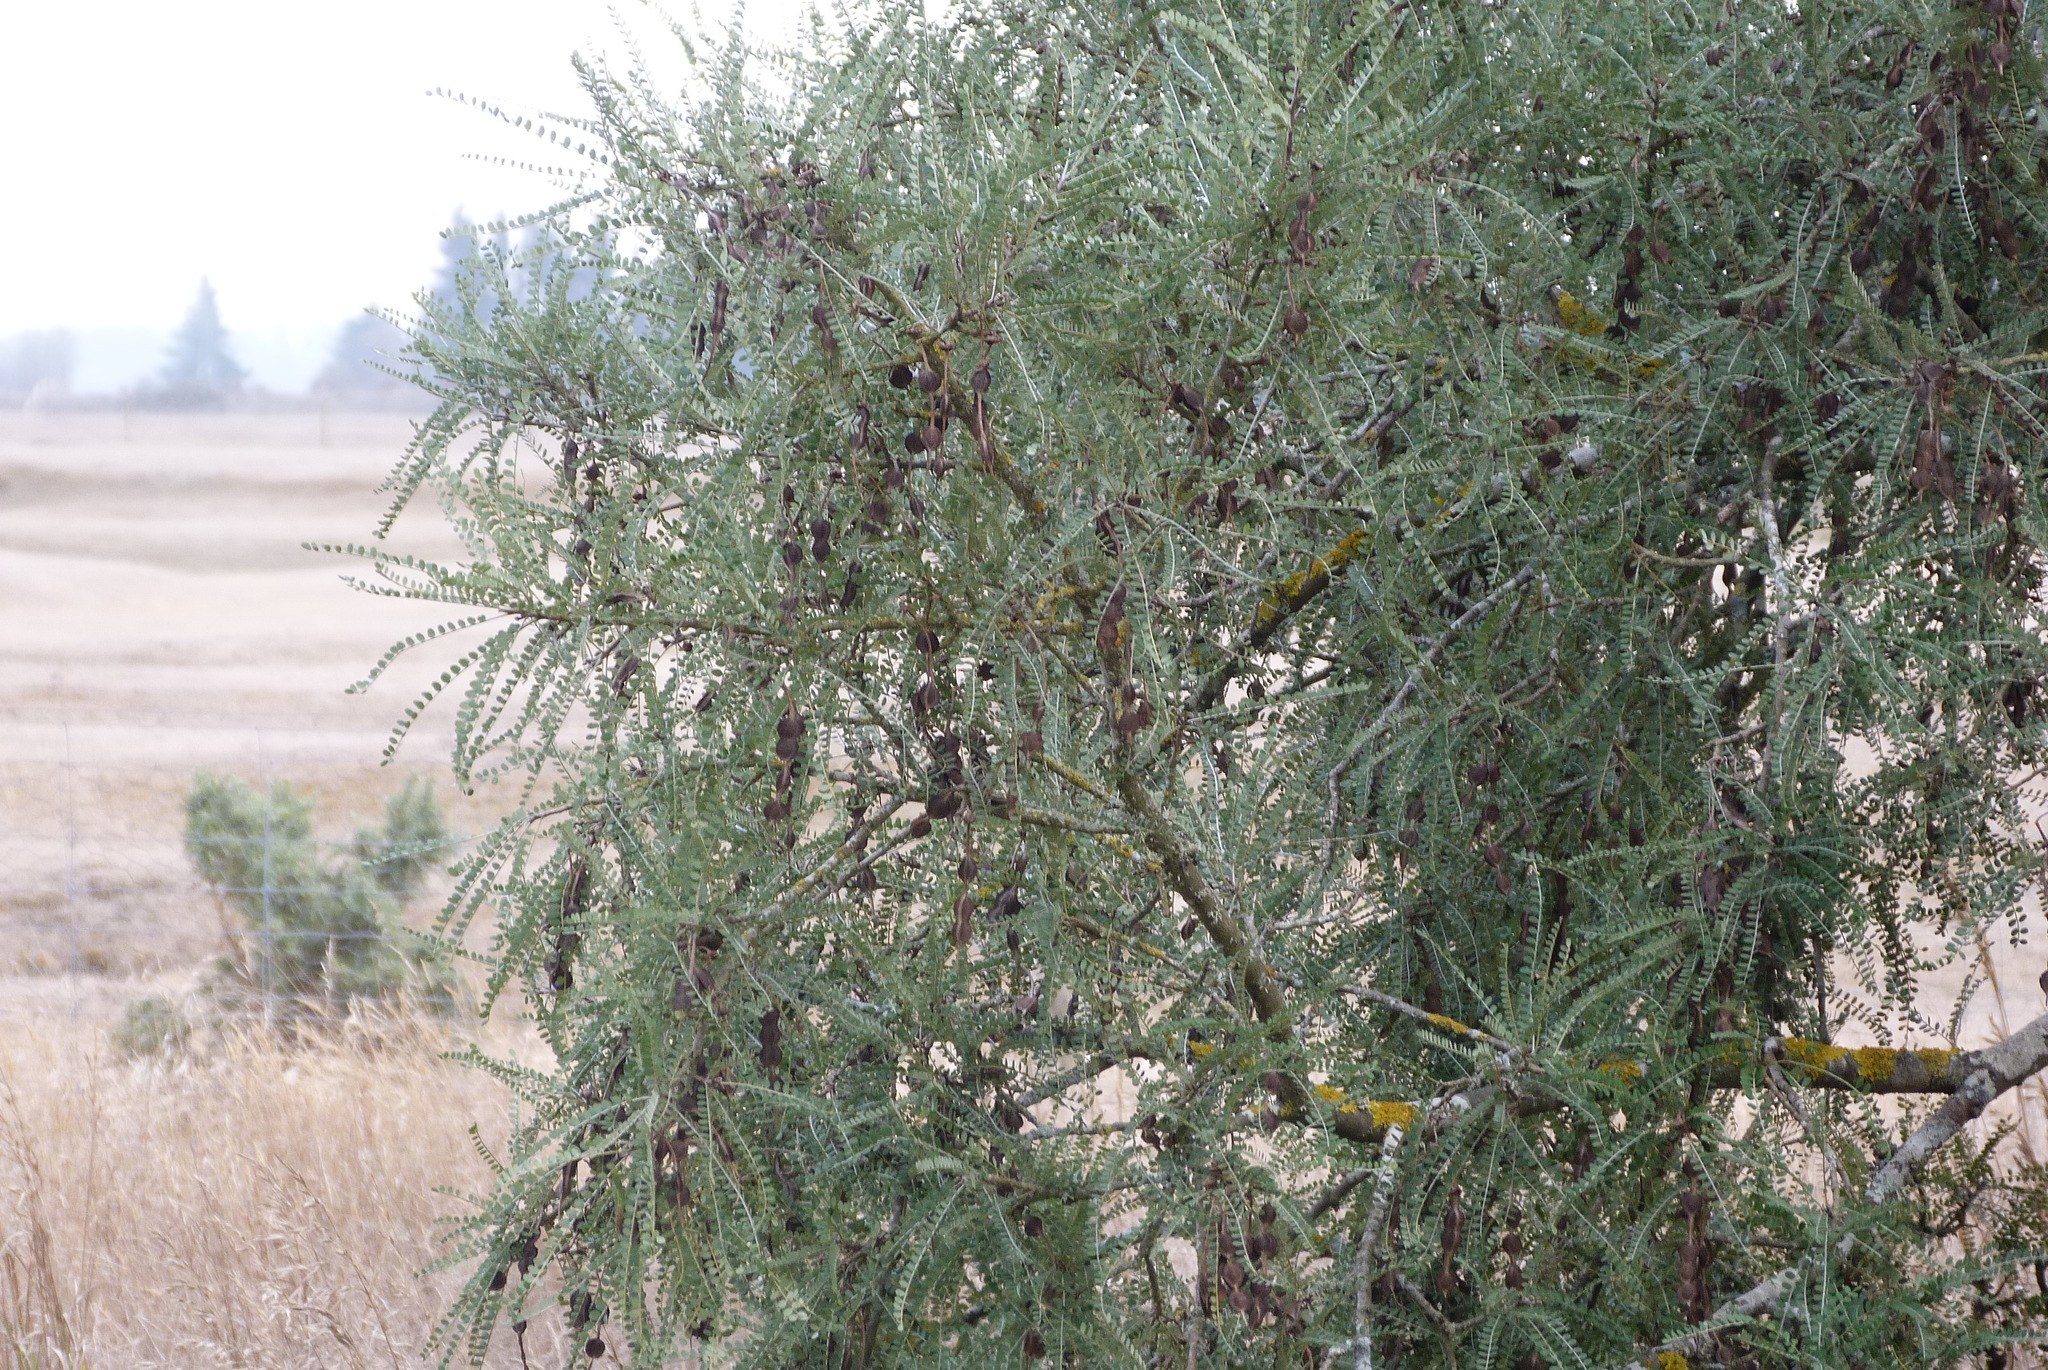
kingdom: Plantae
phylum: Tracheophyta
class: Magnoliopsida
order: Fabales
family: Fabaceae
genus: Sophora
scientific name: Sophora microphylla
